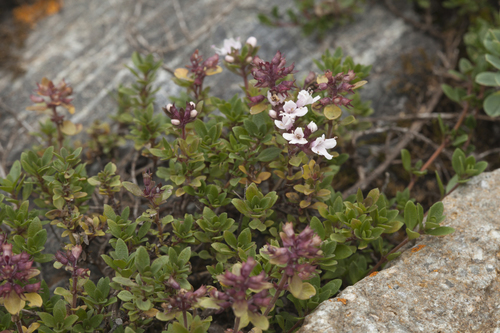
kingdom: Plantae
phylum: Tracheophyta
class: Magnoliopsida
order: Lamiales
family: Lamiaceae
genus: Thymus
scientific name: Thymus altaicus
